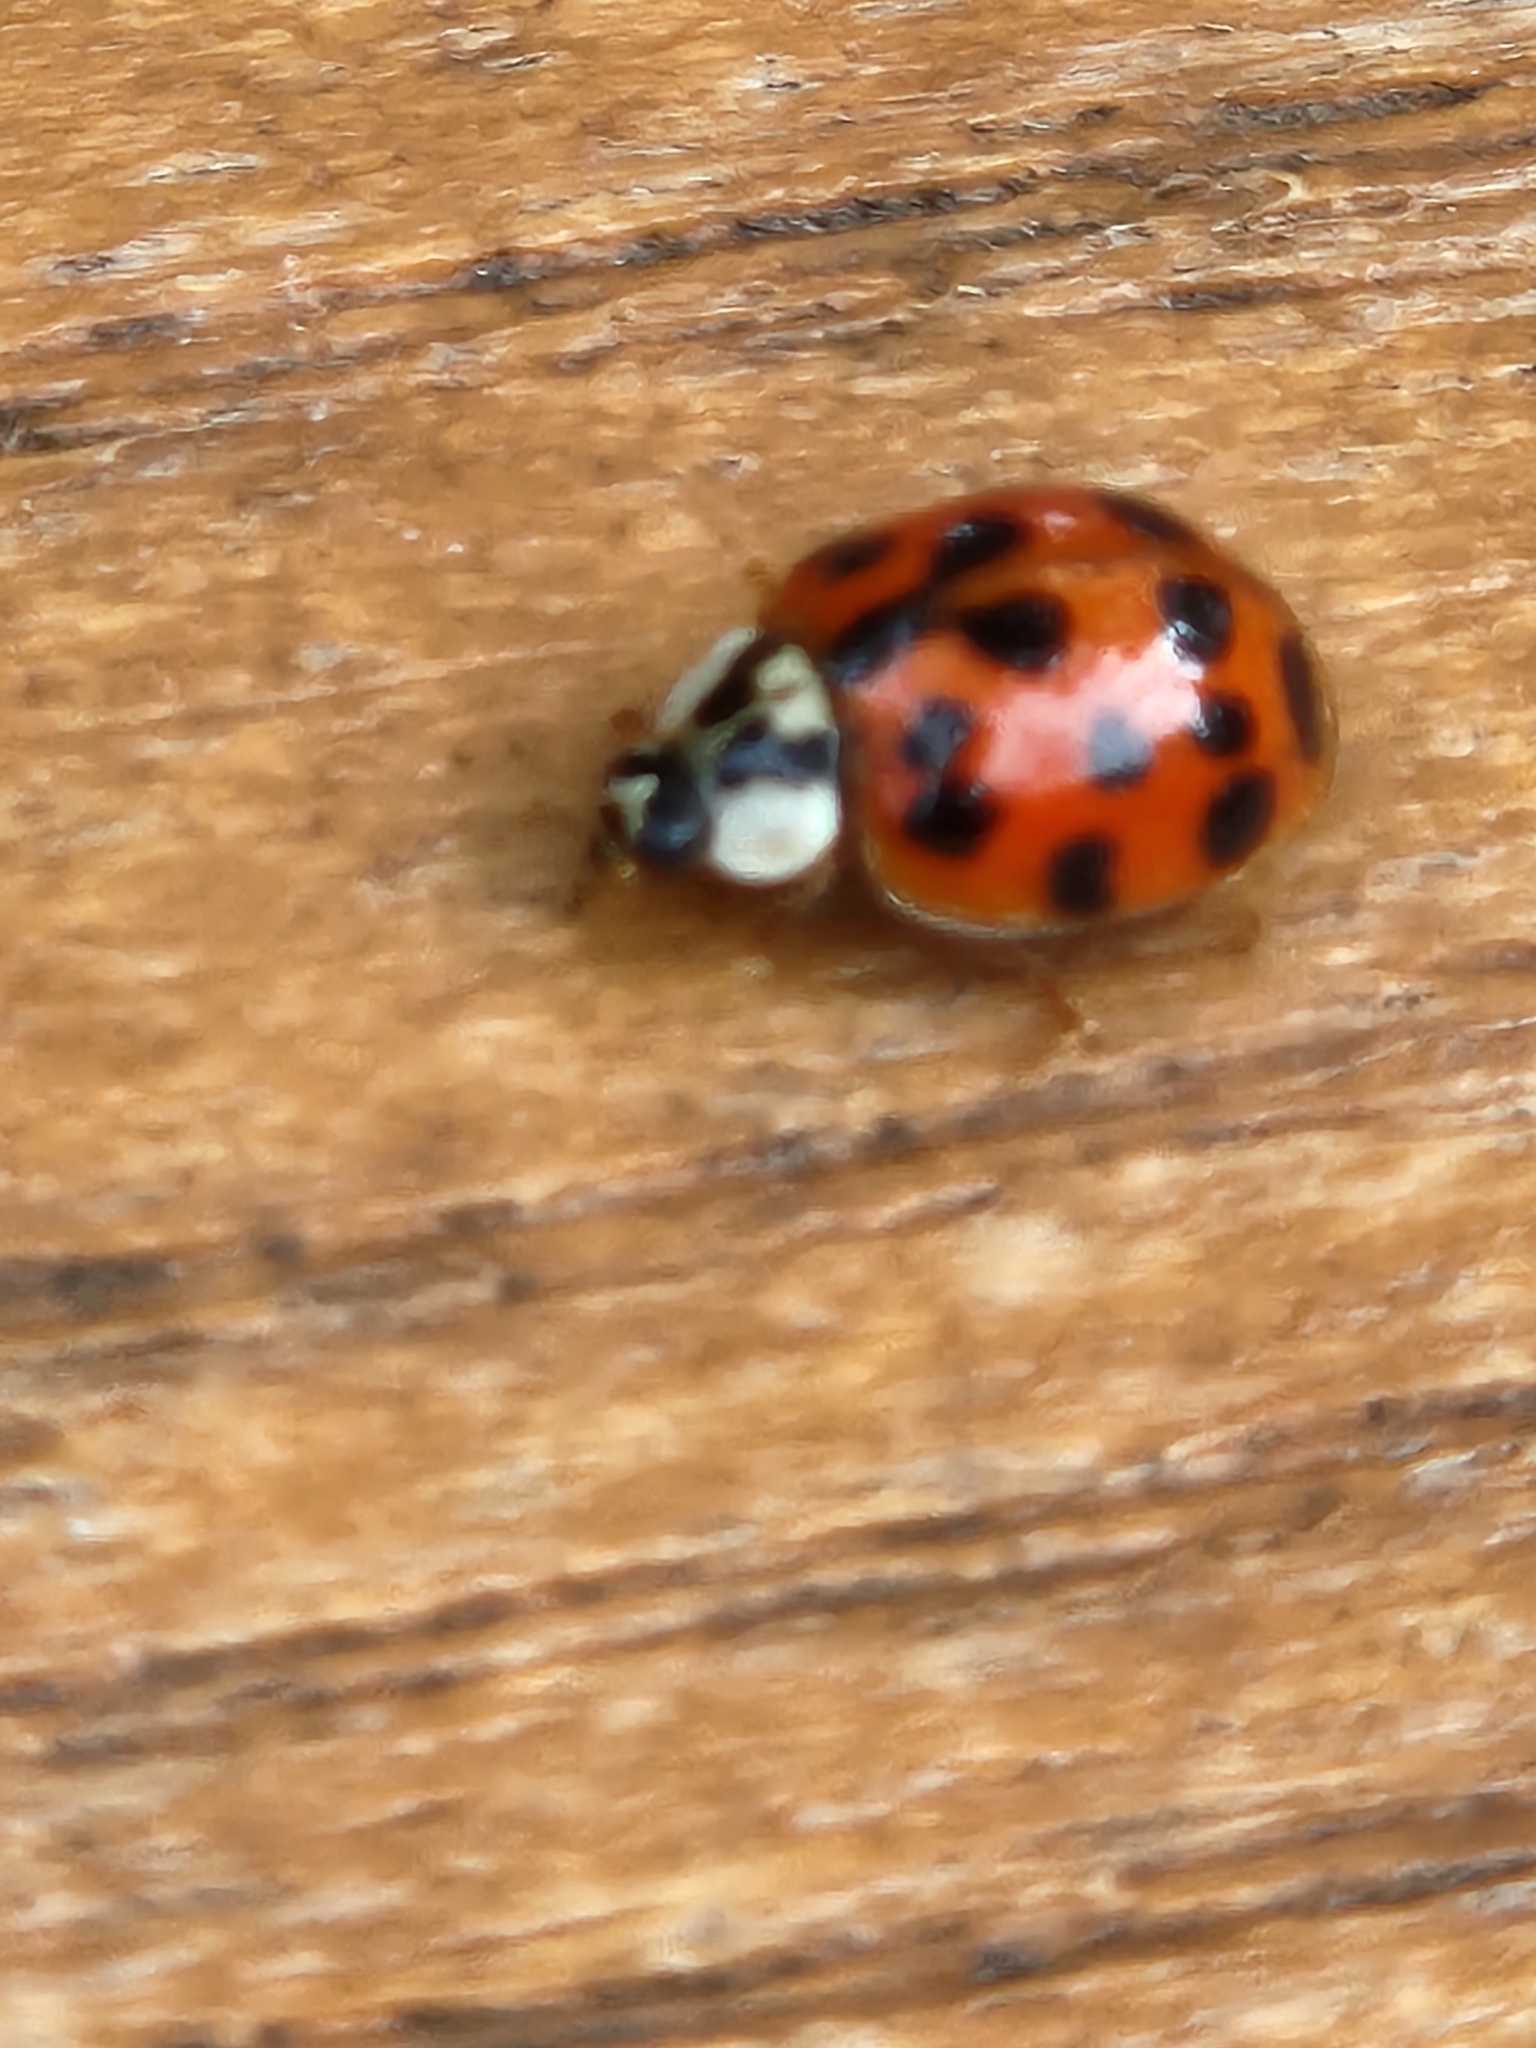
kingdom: Animalia
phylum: Arthropoda
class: Insecta
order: Coleoptera
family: Coccinellidae
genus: Harmonia
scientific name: Harmonia axyridis
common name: Harlequin ladybird
